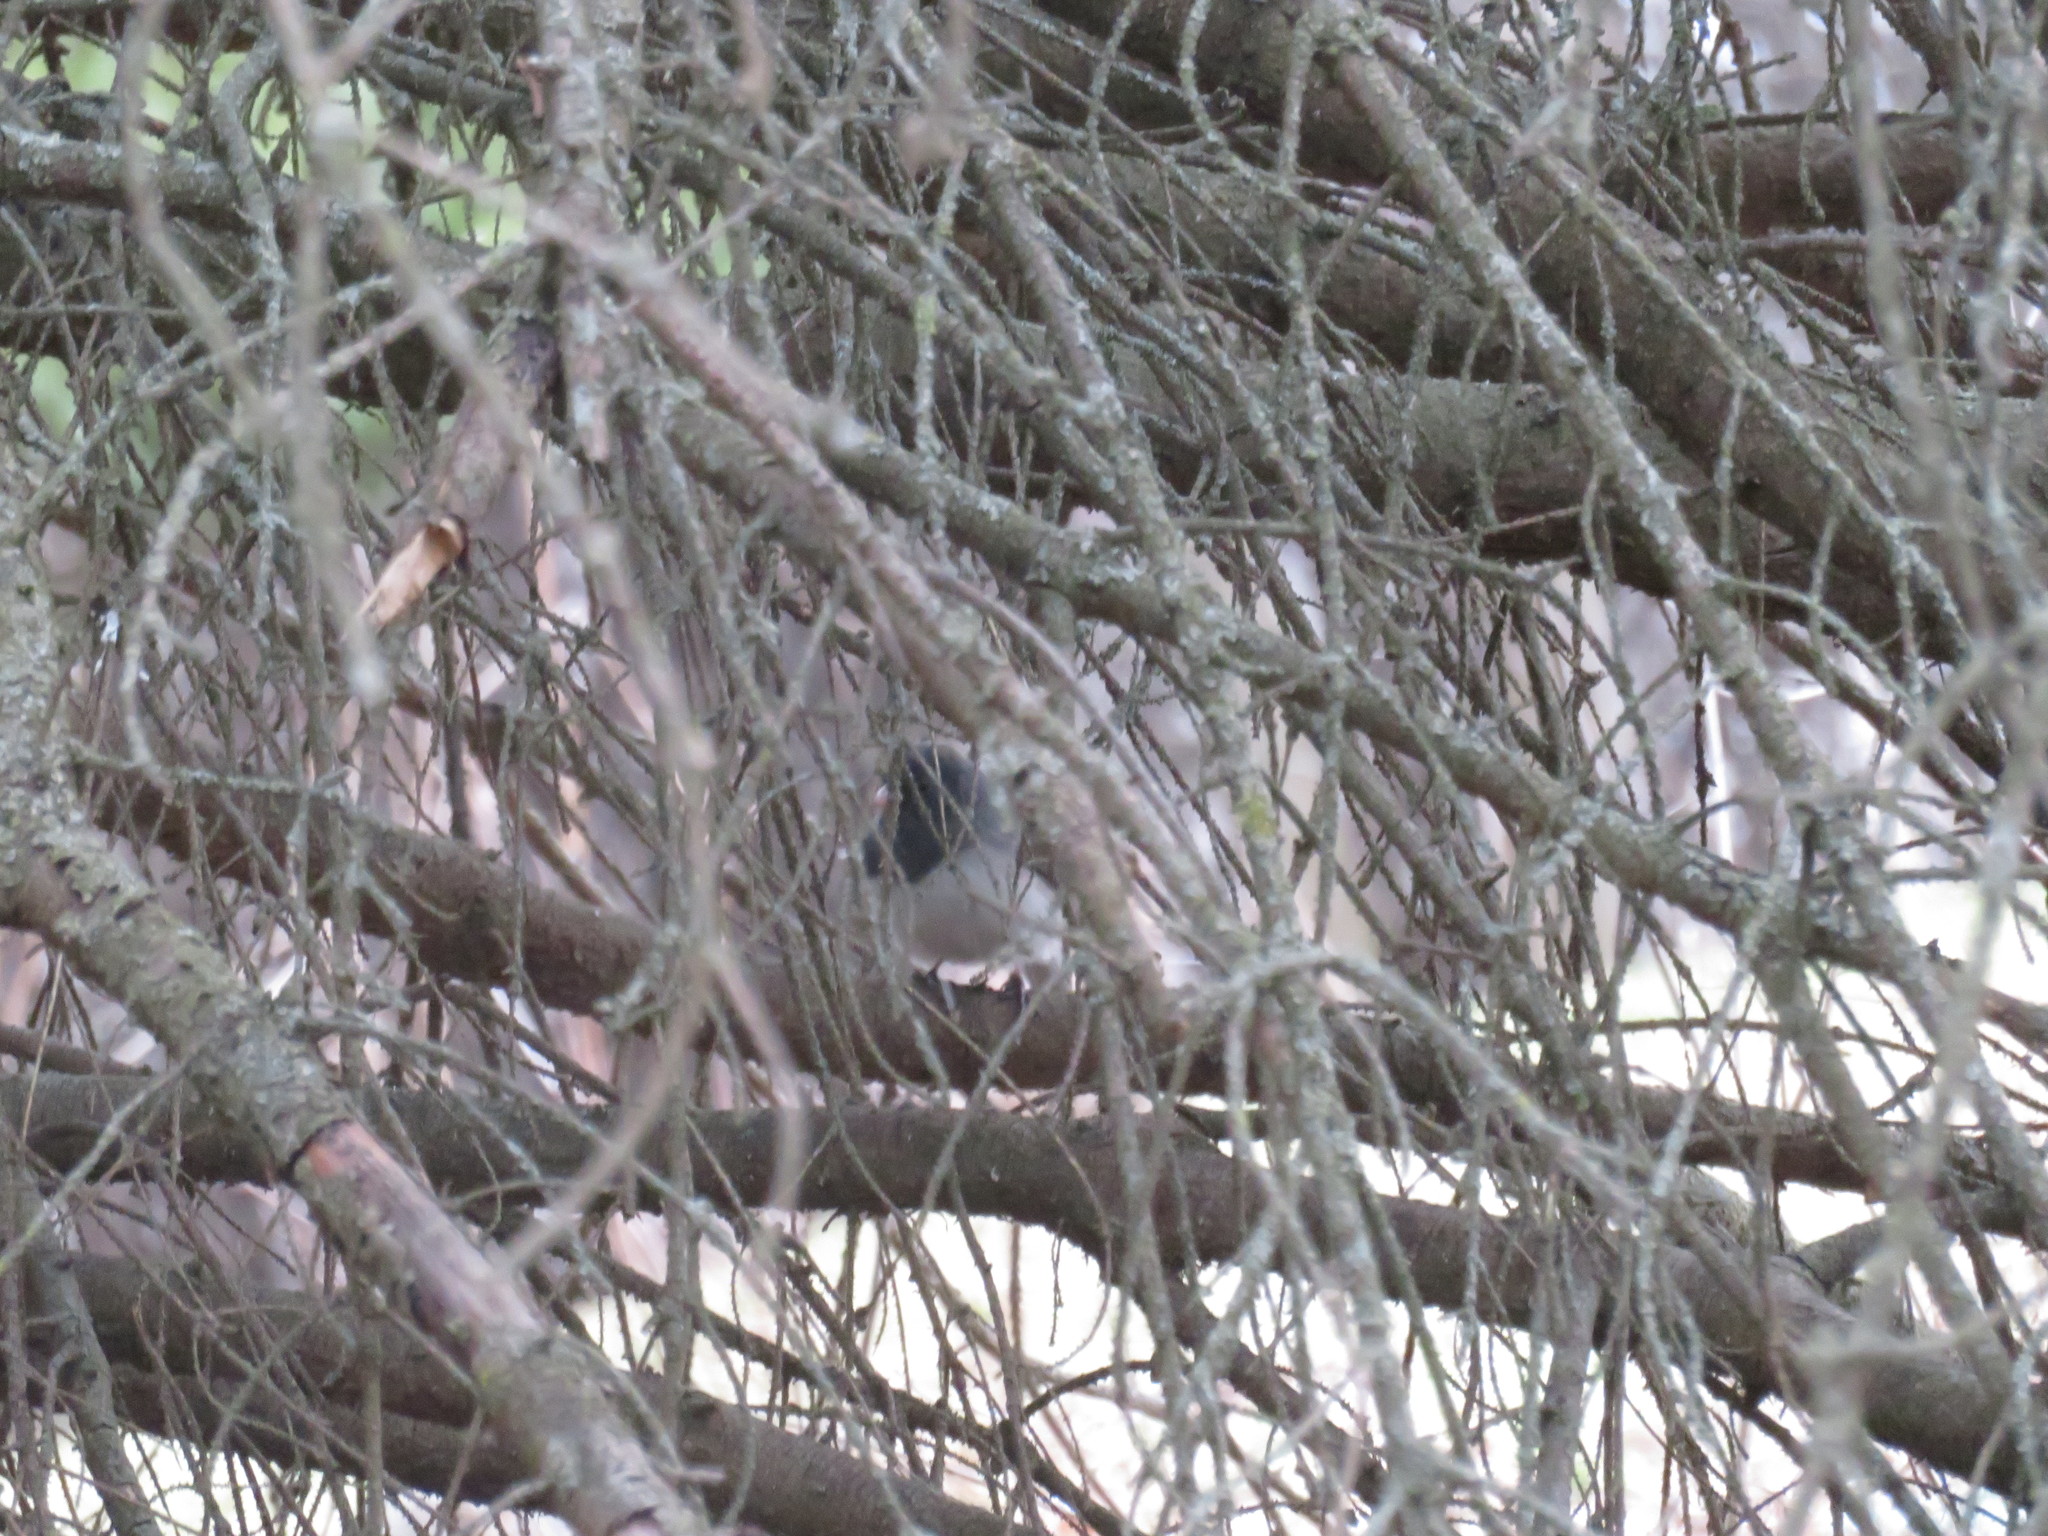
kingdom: Animalia
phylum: Chordata
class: Aves
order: Passeriformes
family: Passerellidae
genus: Junco
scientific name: Junco hyemalis
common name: Dark-eyed junco
